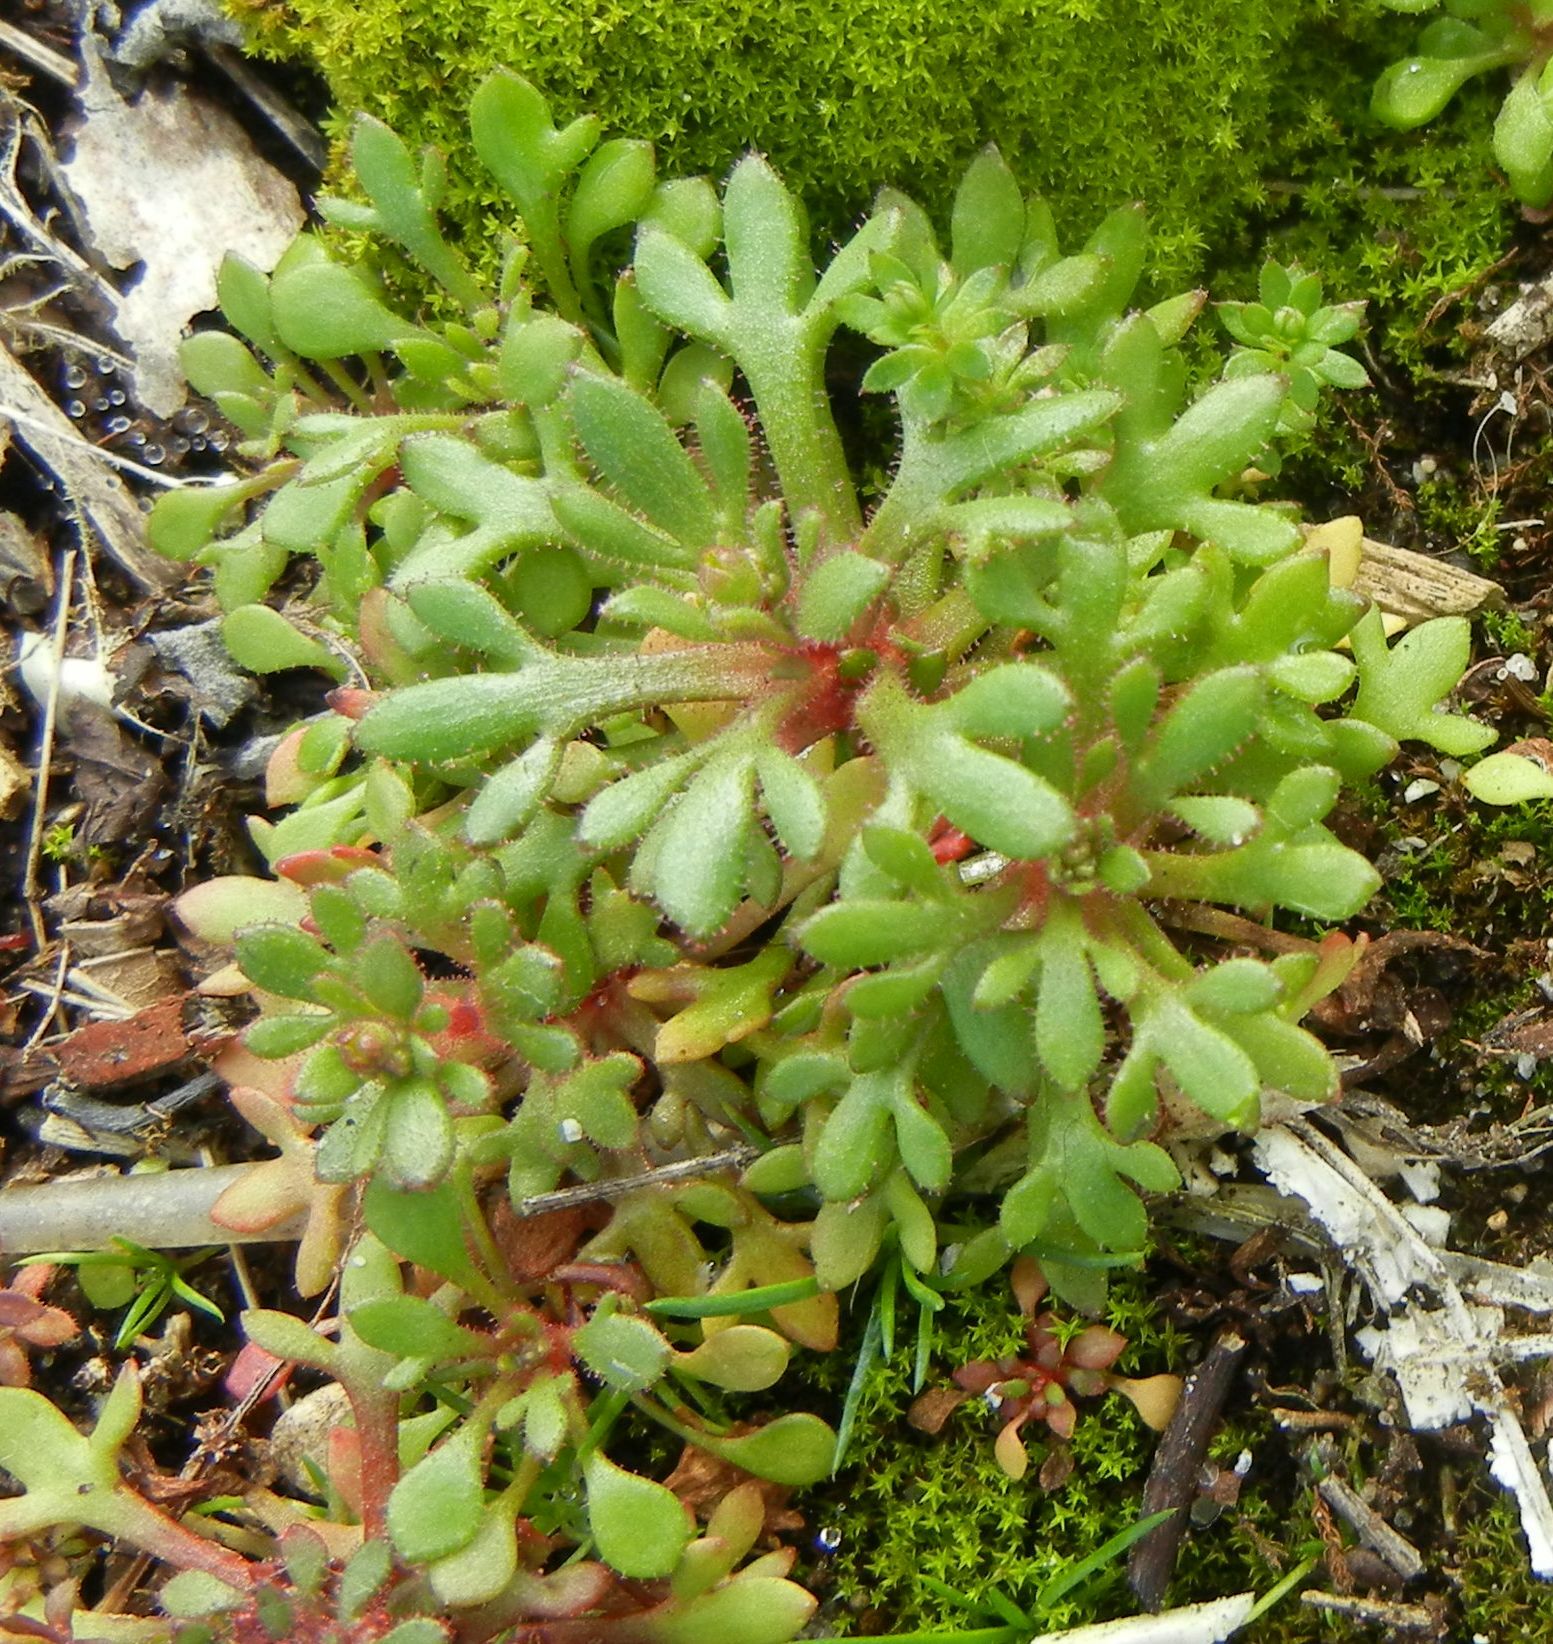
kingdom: Plantae
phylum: Tracheophyta
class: Magnoliopsida
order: Saxifragales
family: Saxifragaceae
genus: Saxifraga
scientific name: Saxifraga tridactylites
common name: Rue-leaved saxifrage
